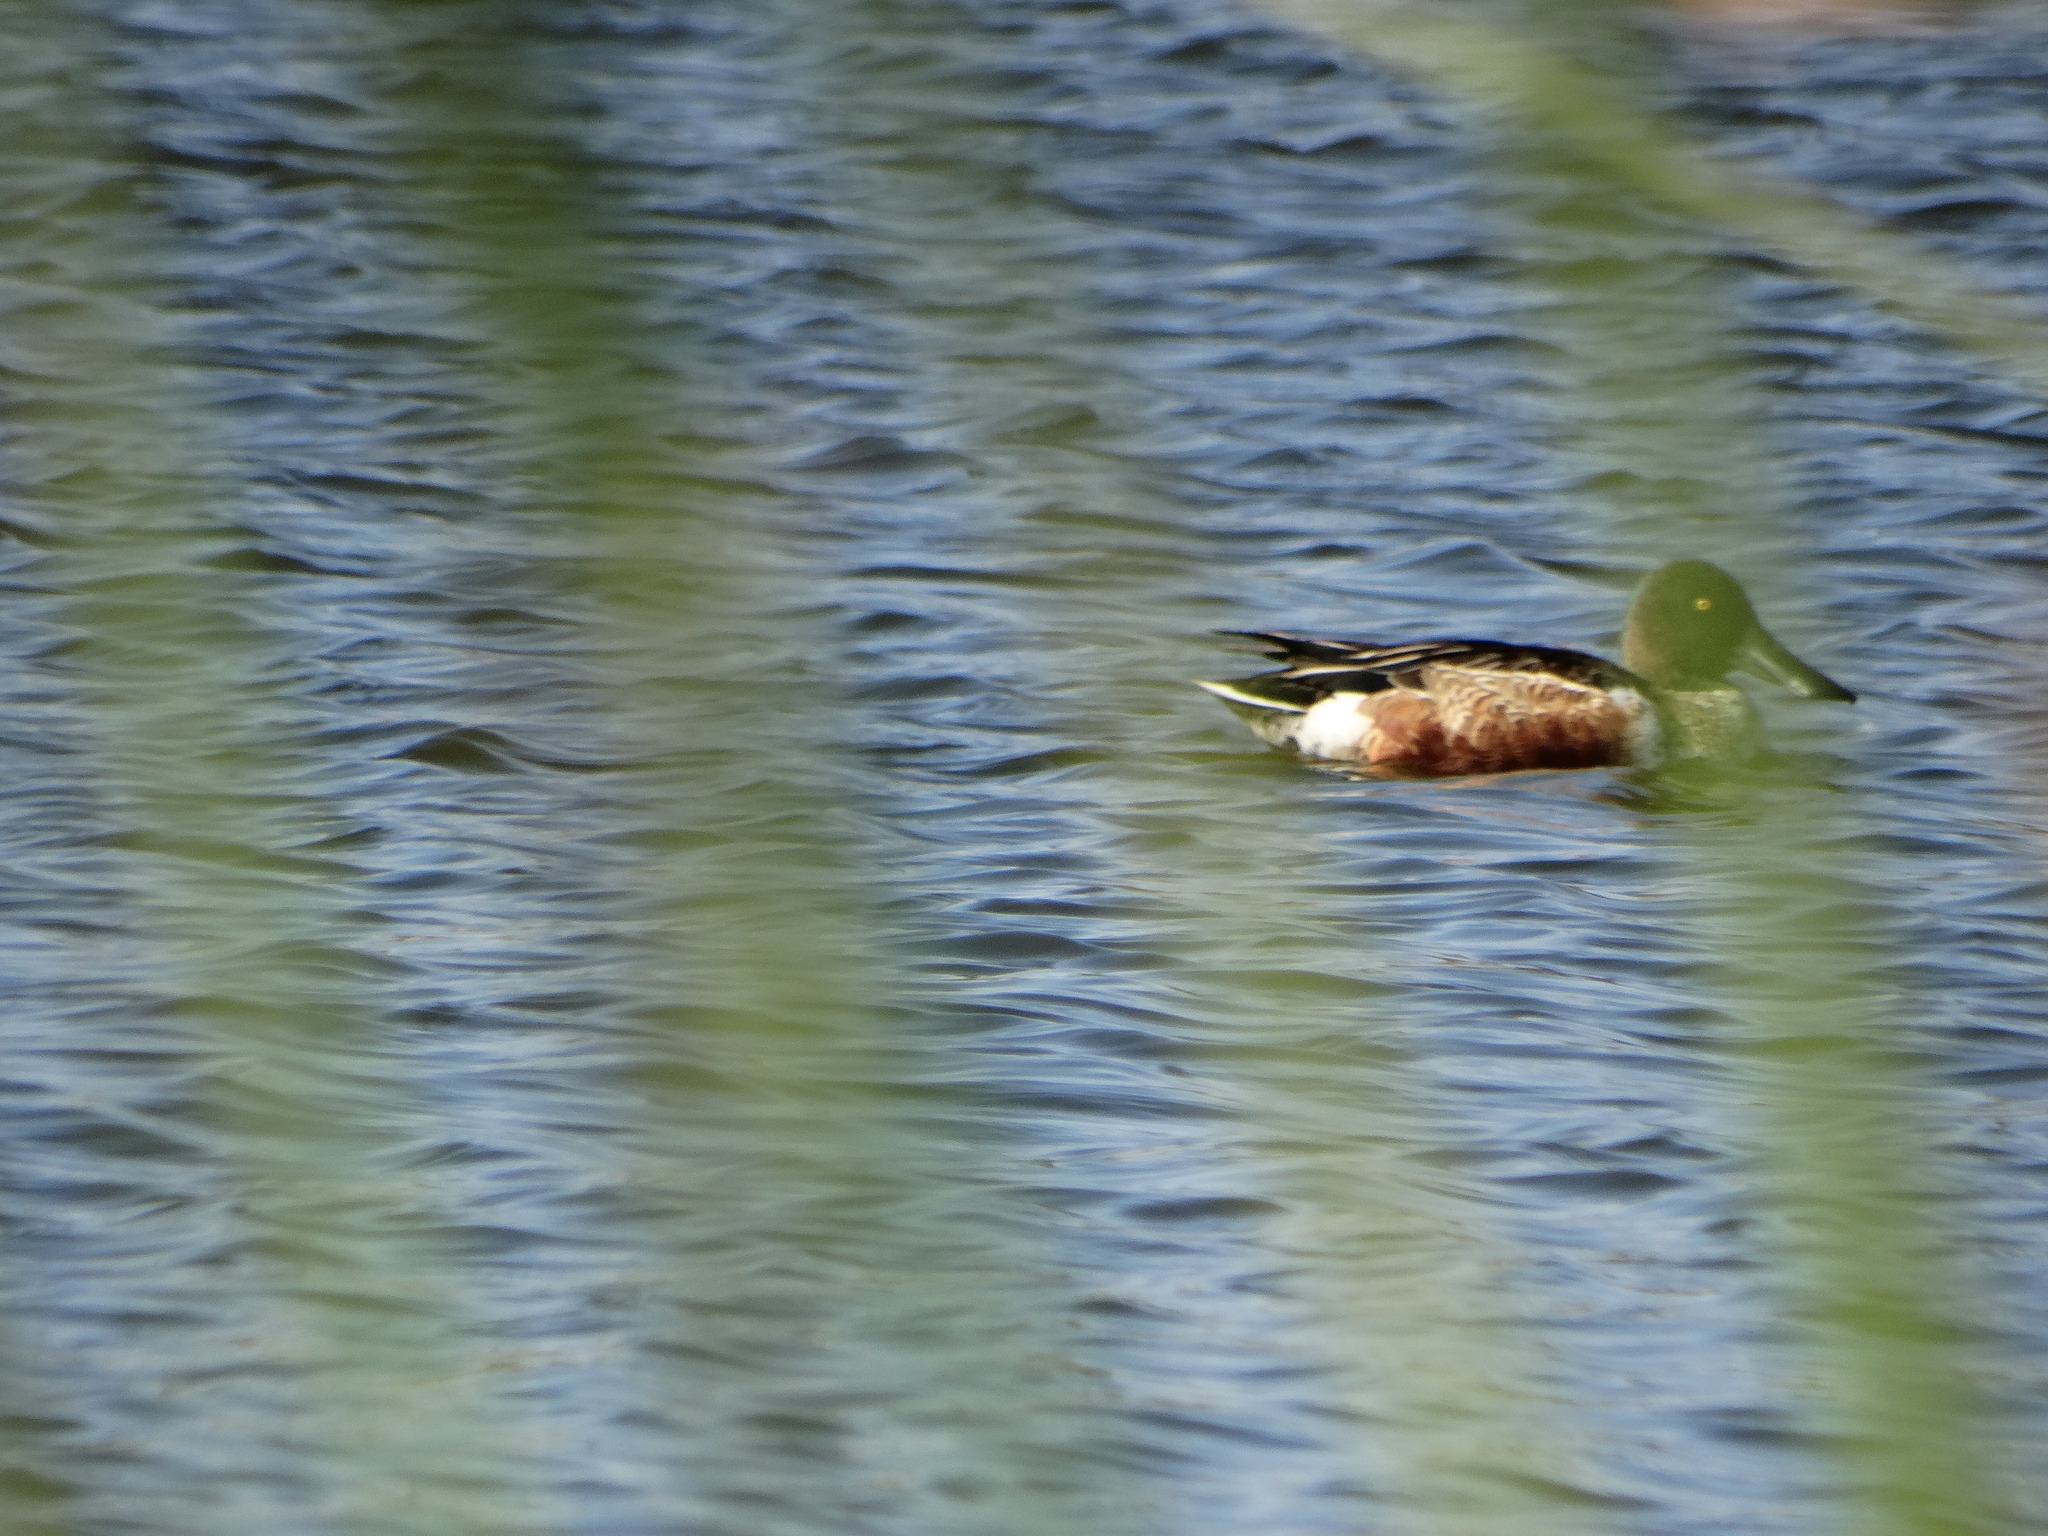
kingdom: Animalia
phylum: Chordata
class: Aves
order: Anseriformes
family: Anatidae
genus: Spatula
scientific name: Spatula clypeata
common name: Northern shoveler
